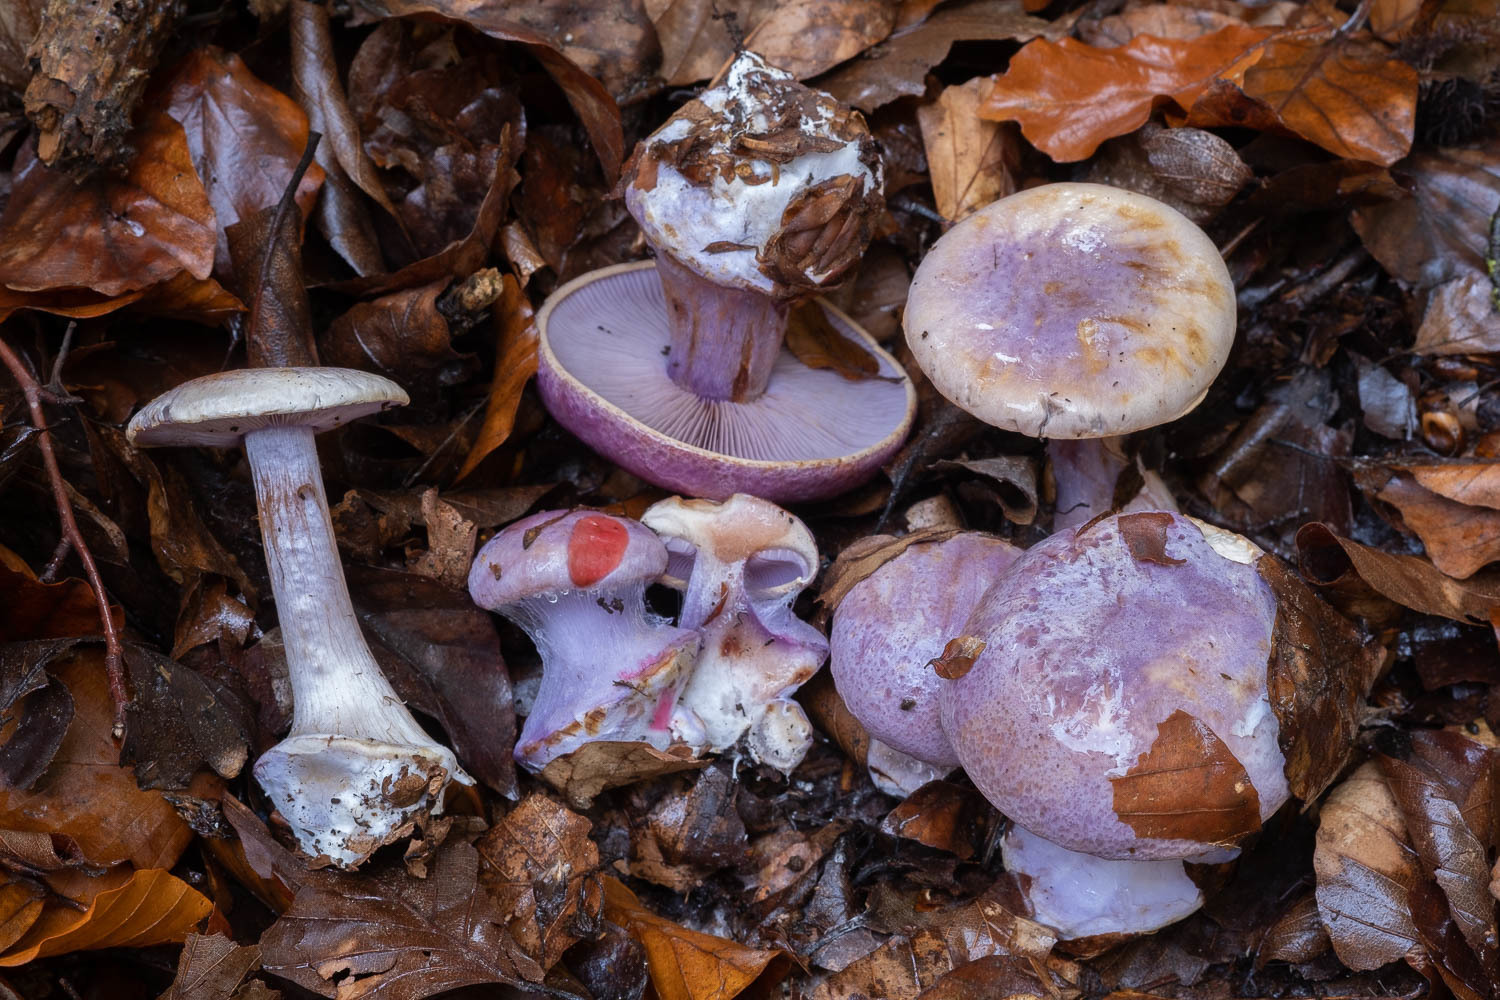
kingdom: Fungi
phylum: Basidiomycota
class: Agaricomycetes
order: Agaricales
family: Cortinariaceae
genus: Calonarius
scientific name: Calonarius sodagnitus
